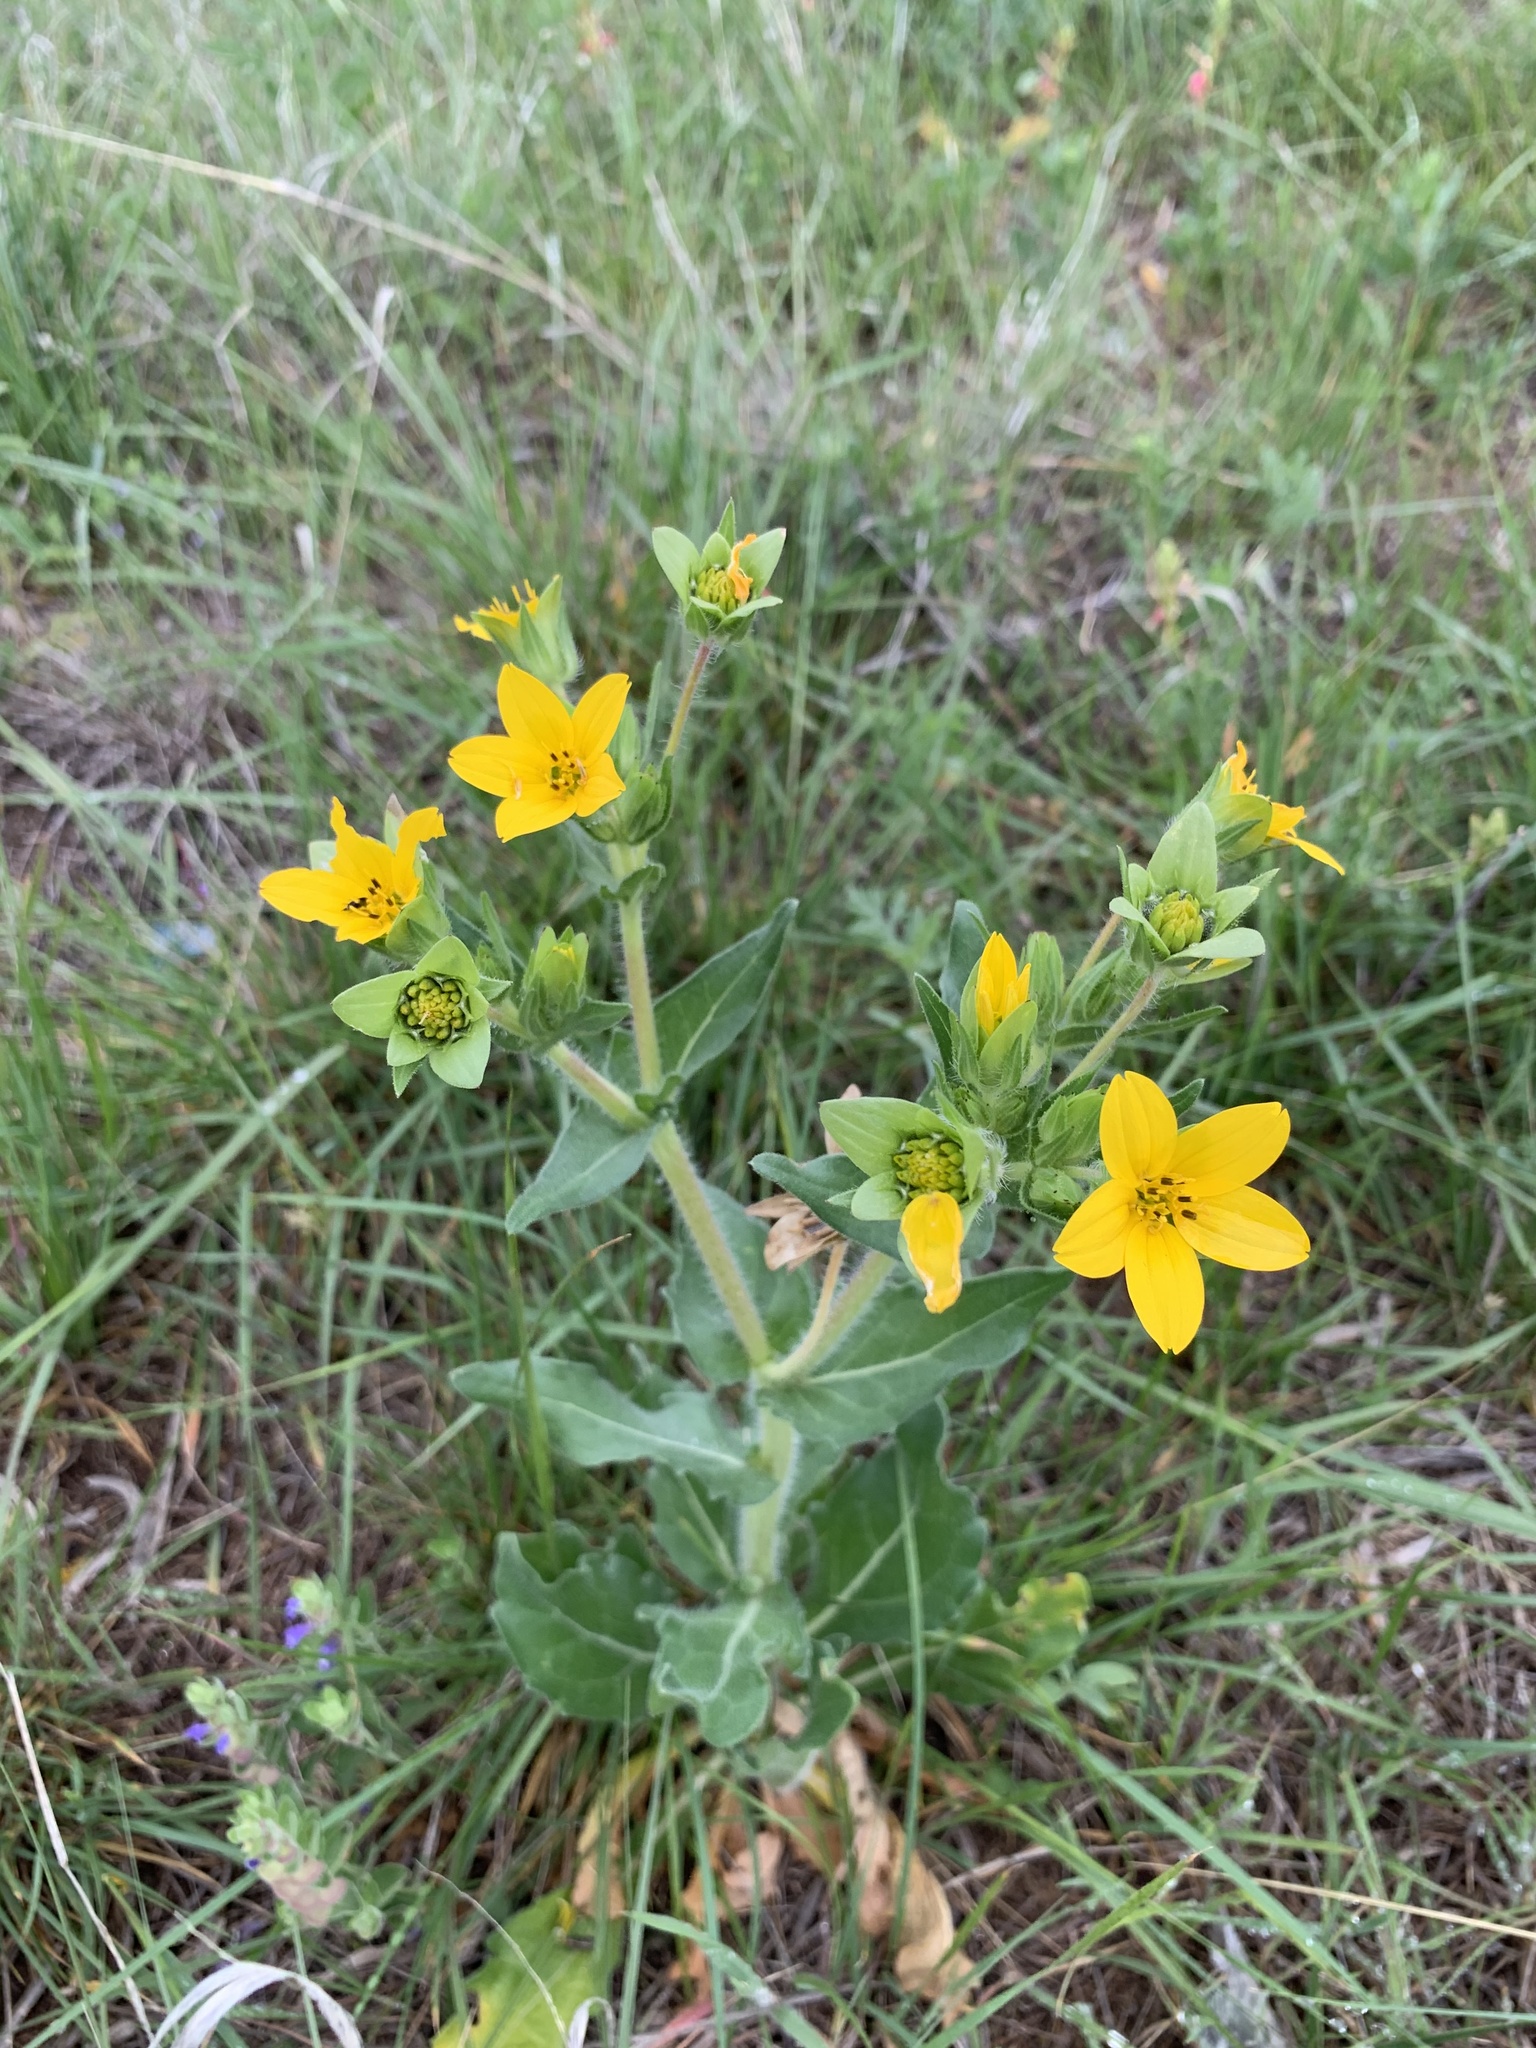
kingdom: Plantae
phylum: Tracheophyta
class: Magnoliopsida
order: Asterales
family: Asteraceae
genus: Lindheimera
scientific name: Lindheimera texana
